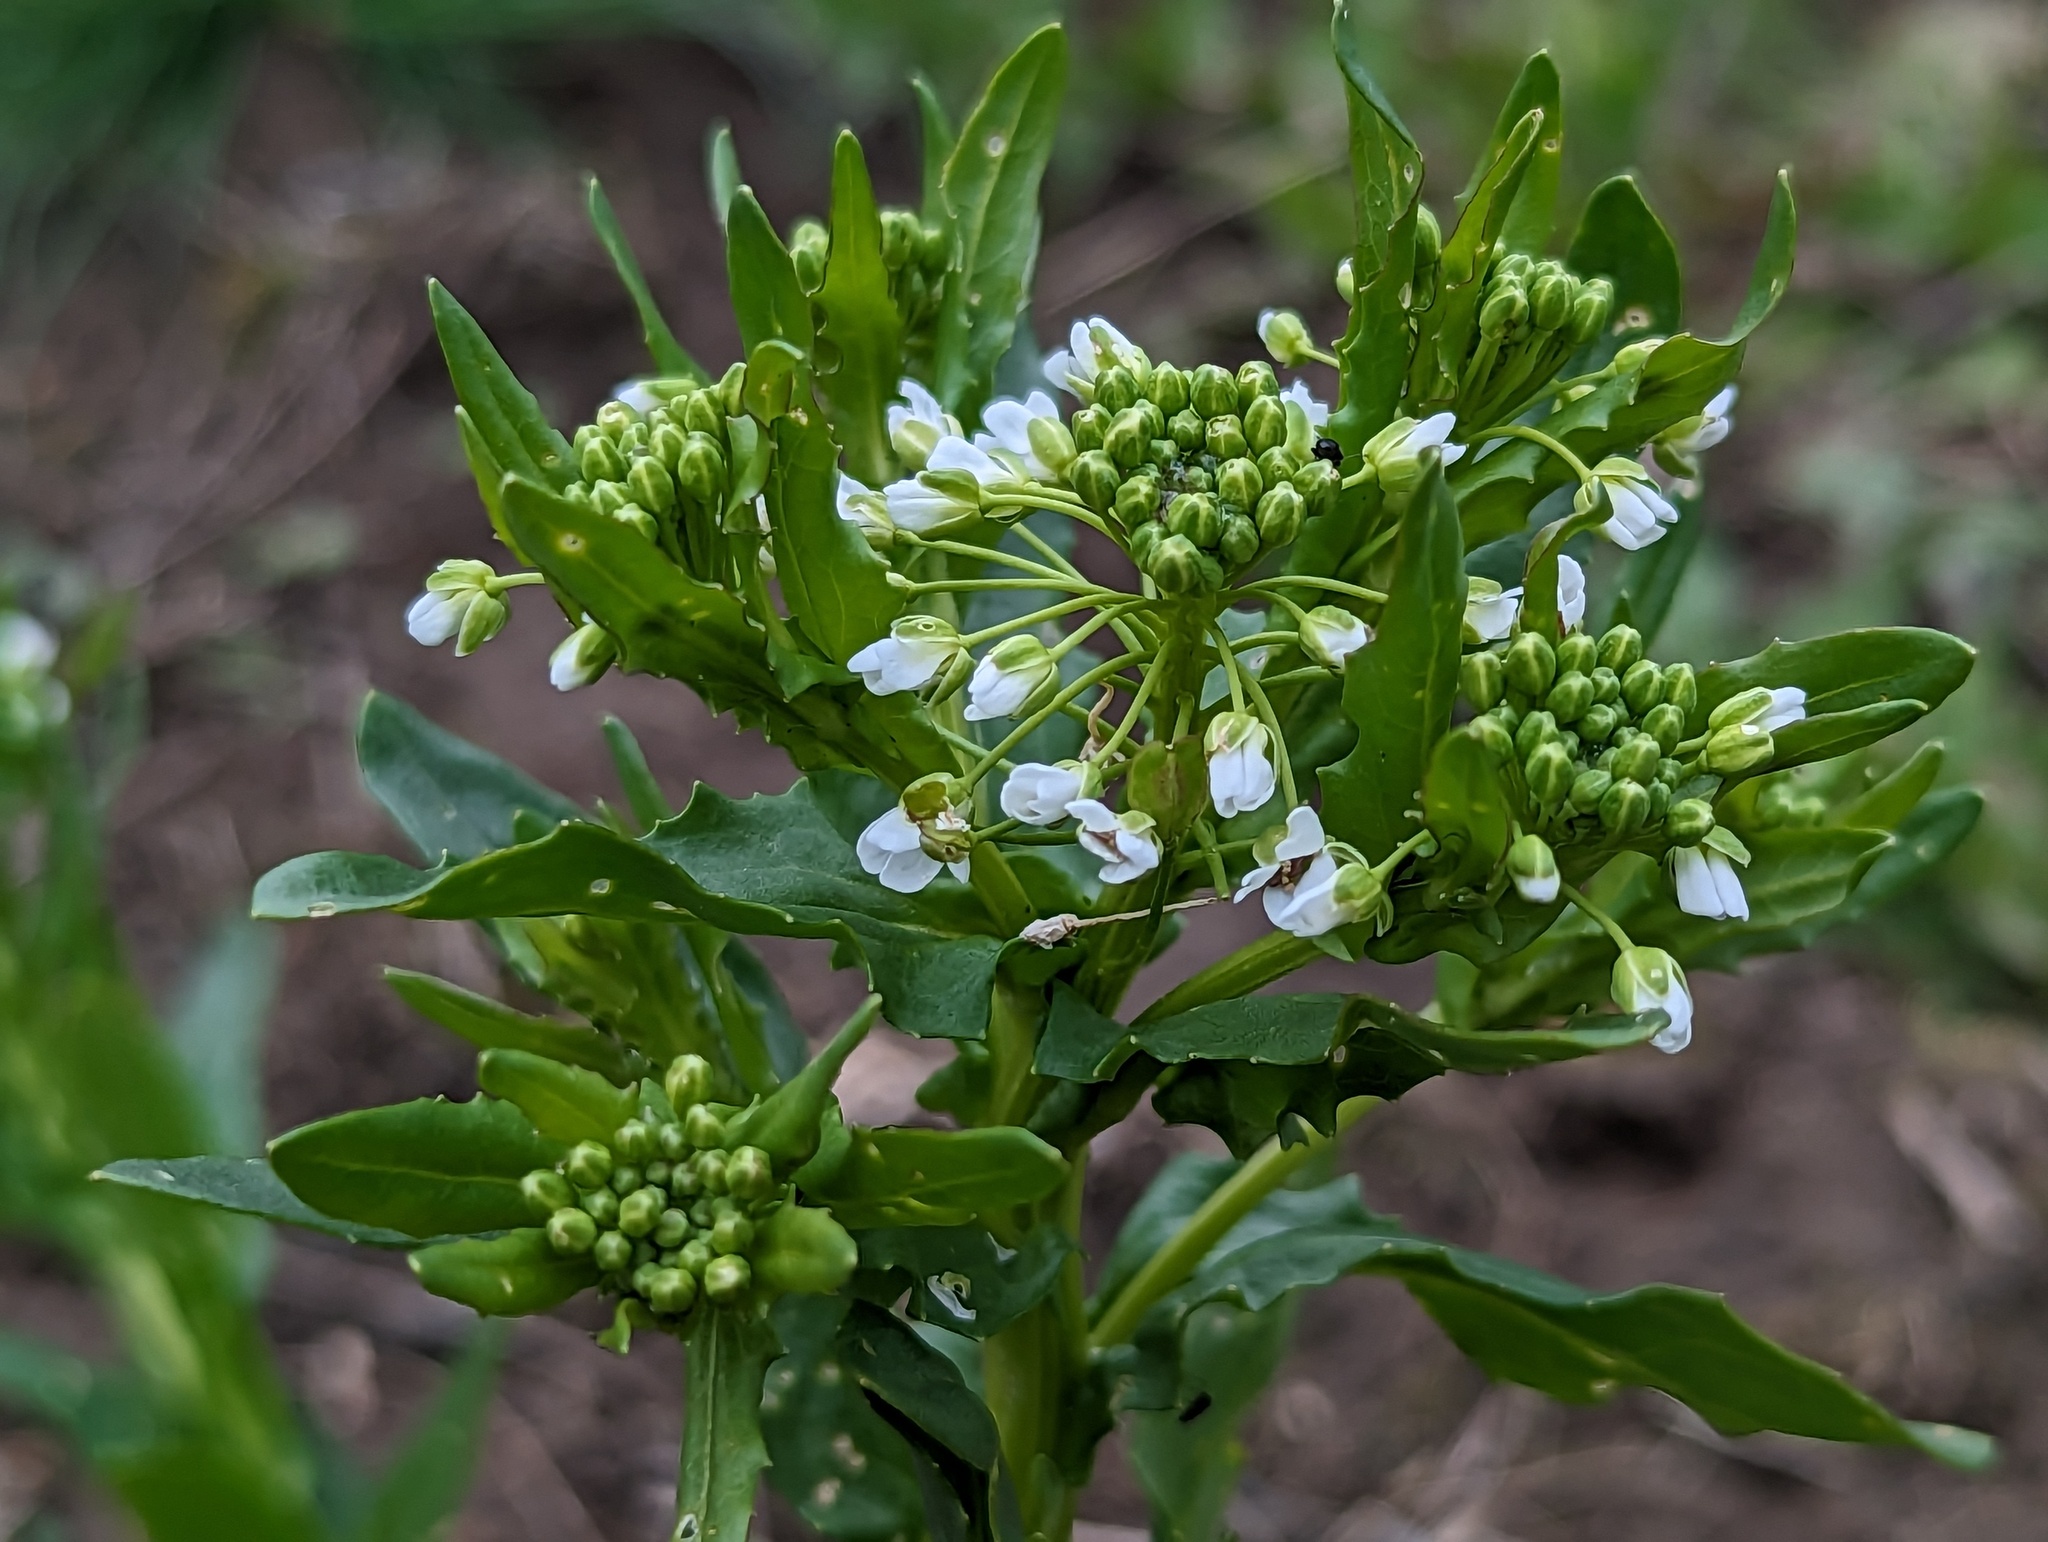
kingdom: Plantae
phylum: Tracheophyta
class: Magnoliopsida
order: Brassicales
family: Brassicaceae
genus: Thlaspi
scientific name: Thlaspi arvense
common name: Field pennycress
